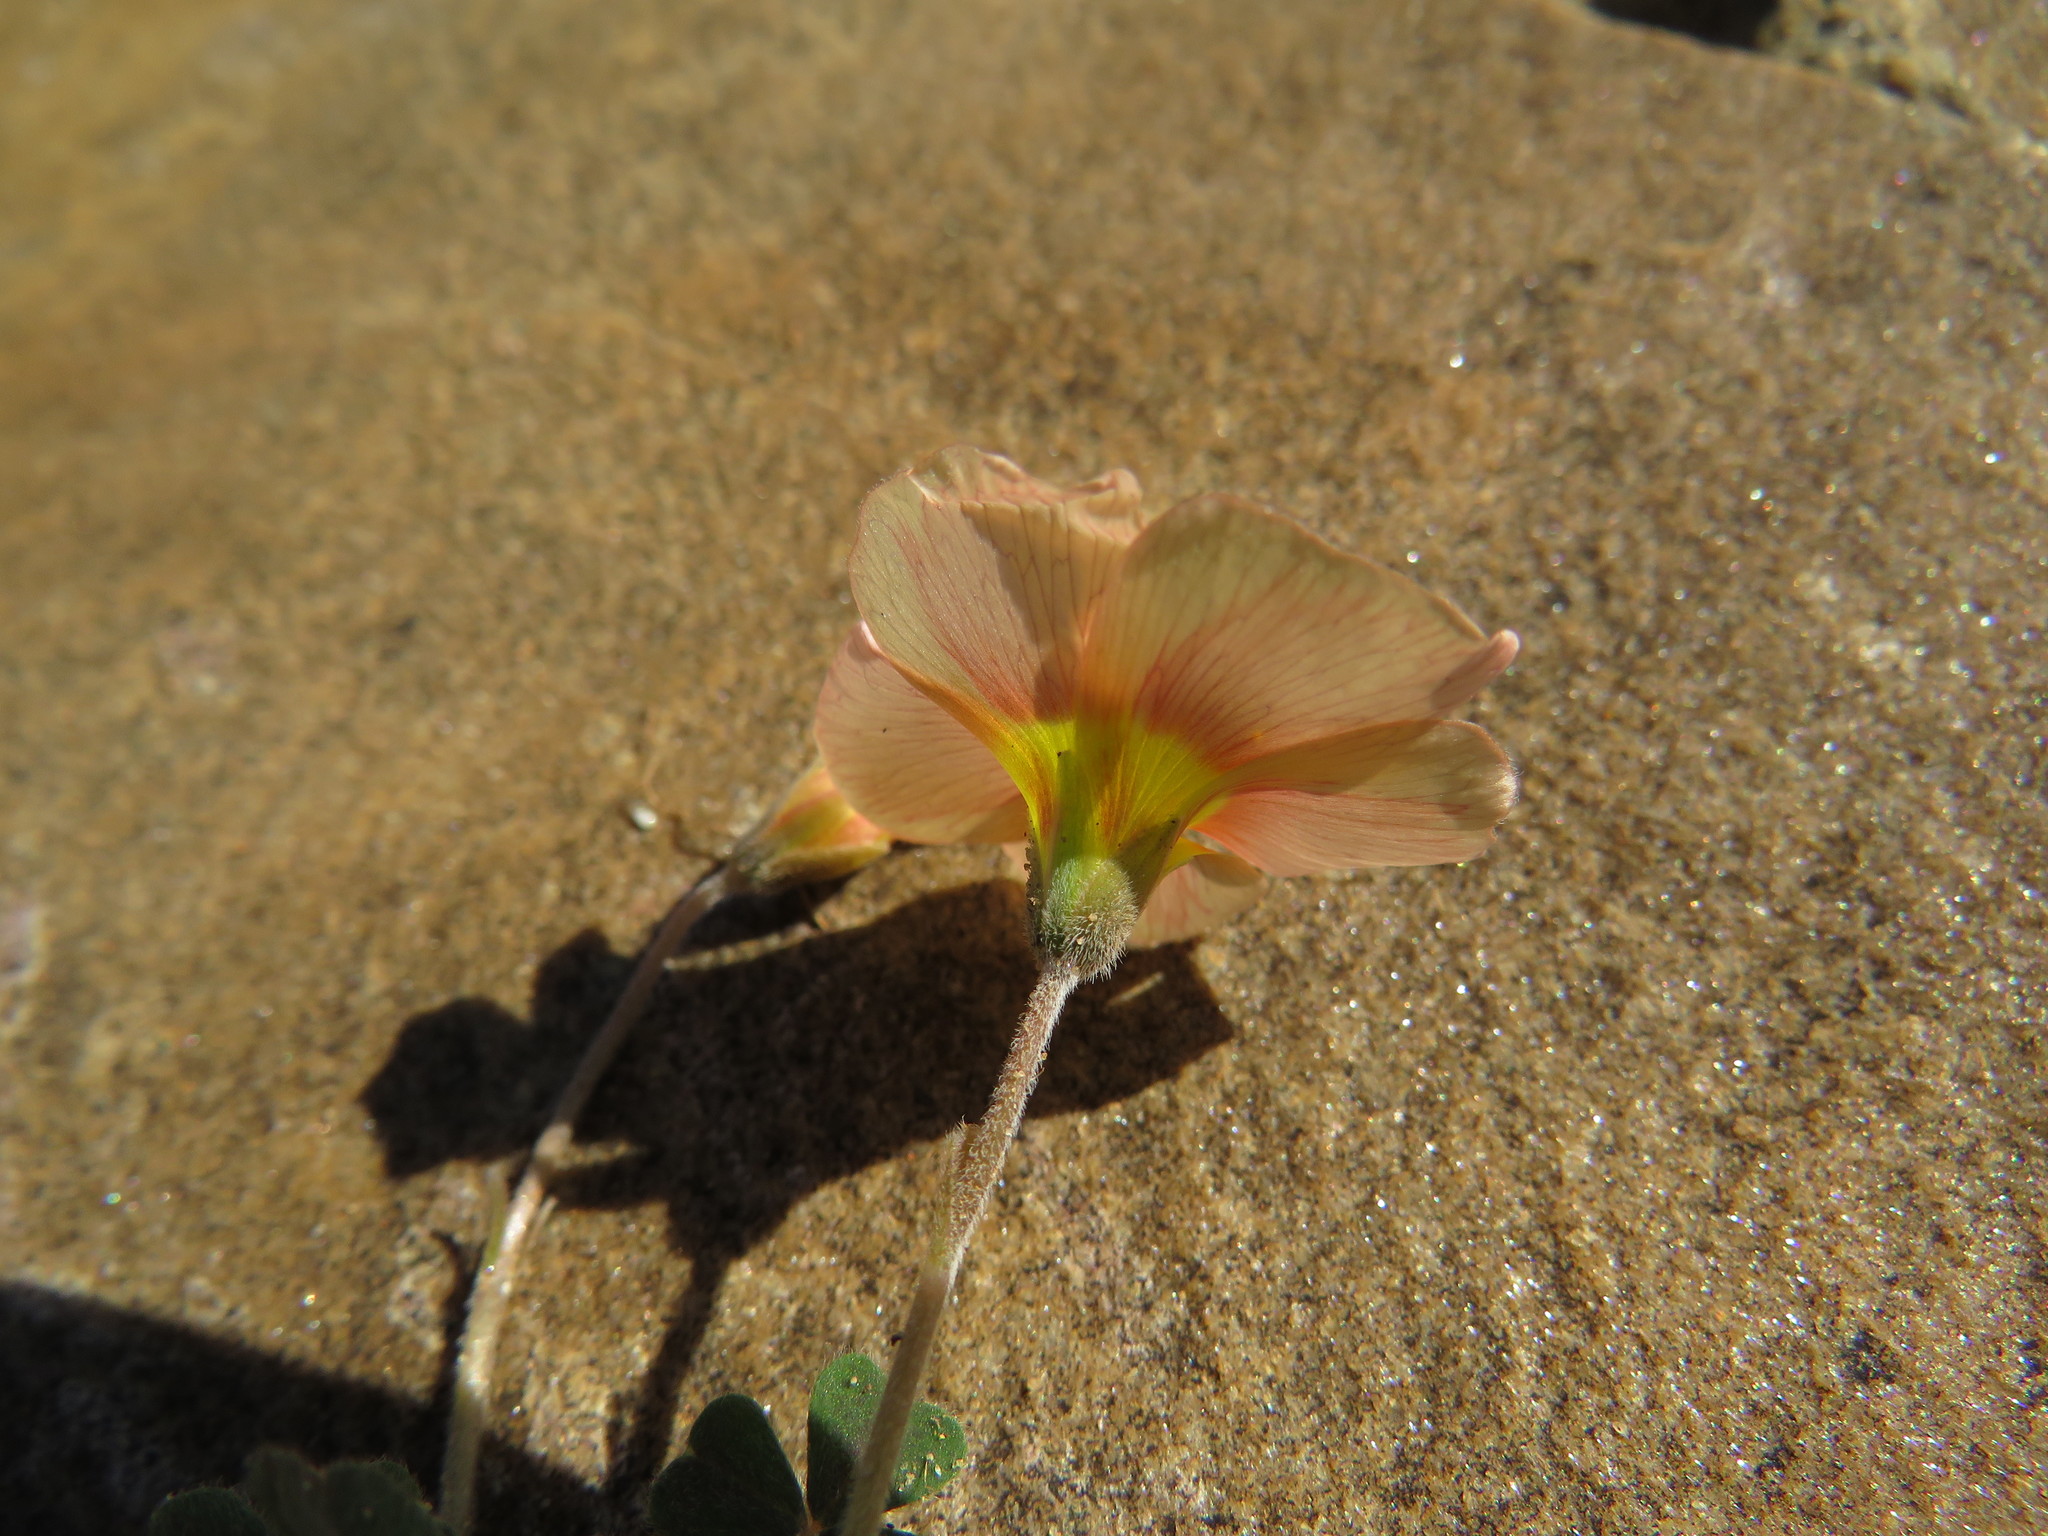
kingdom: Plantae
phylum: Tracheophyta
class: Magnoliopsida
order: Oxalidales
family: Oxalidaceae
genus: Oxalis
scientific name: Oxalis obtusa
